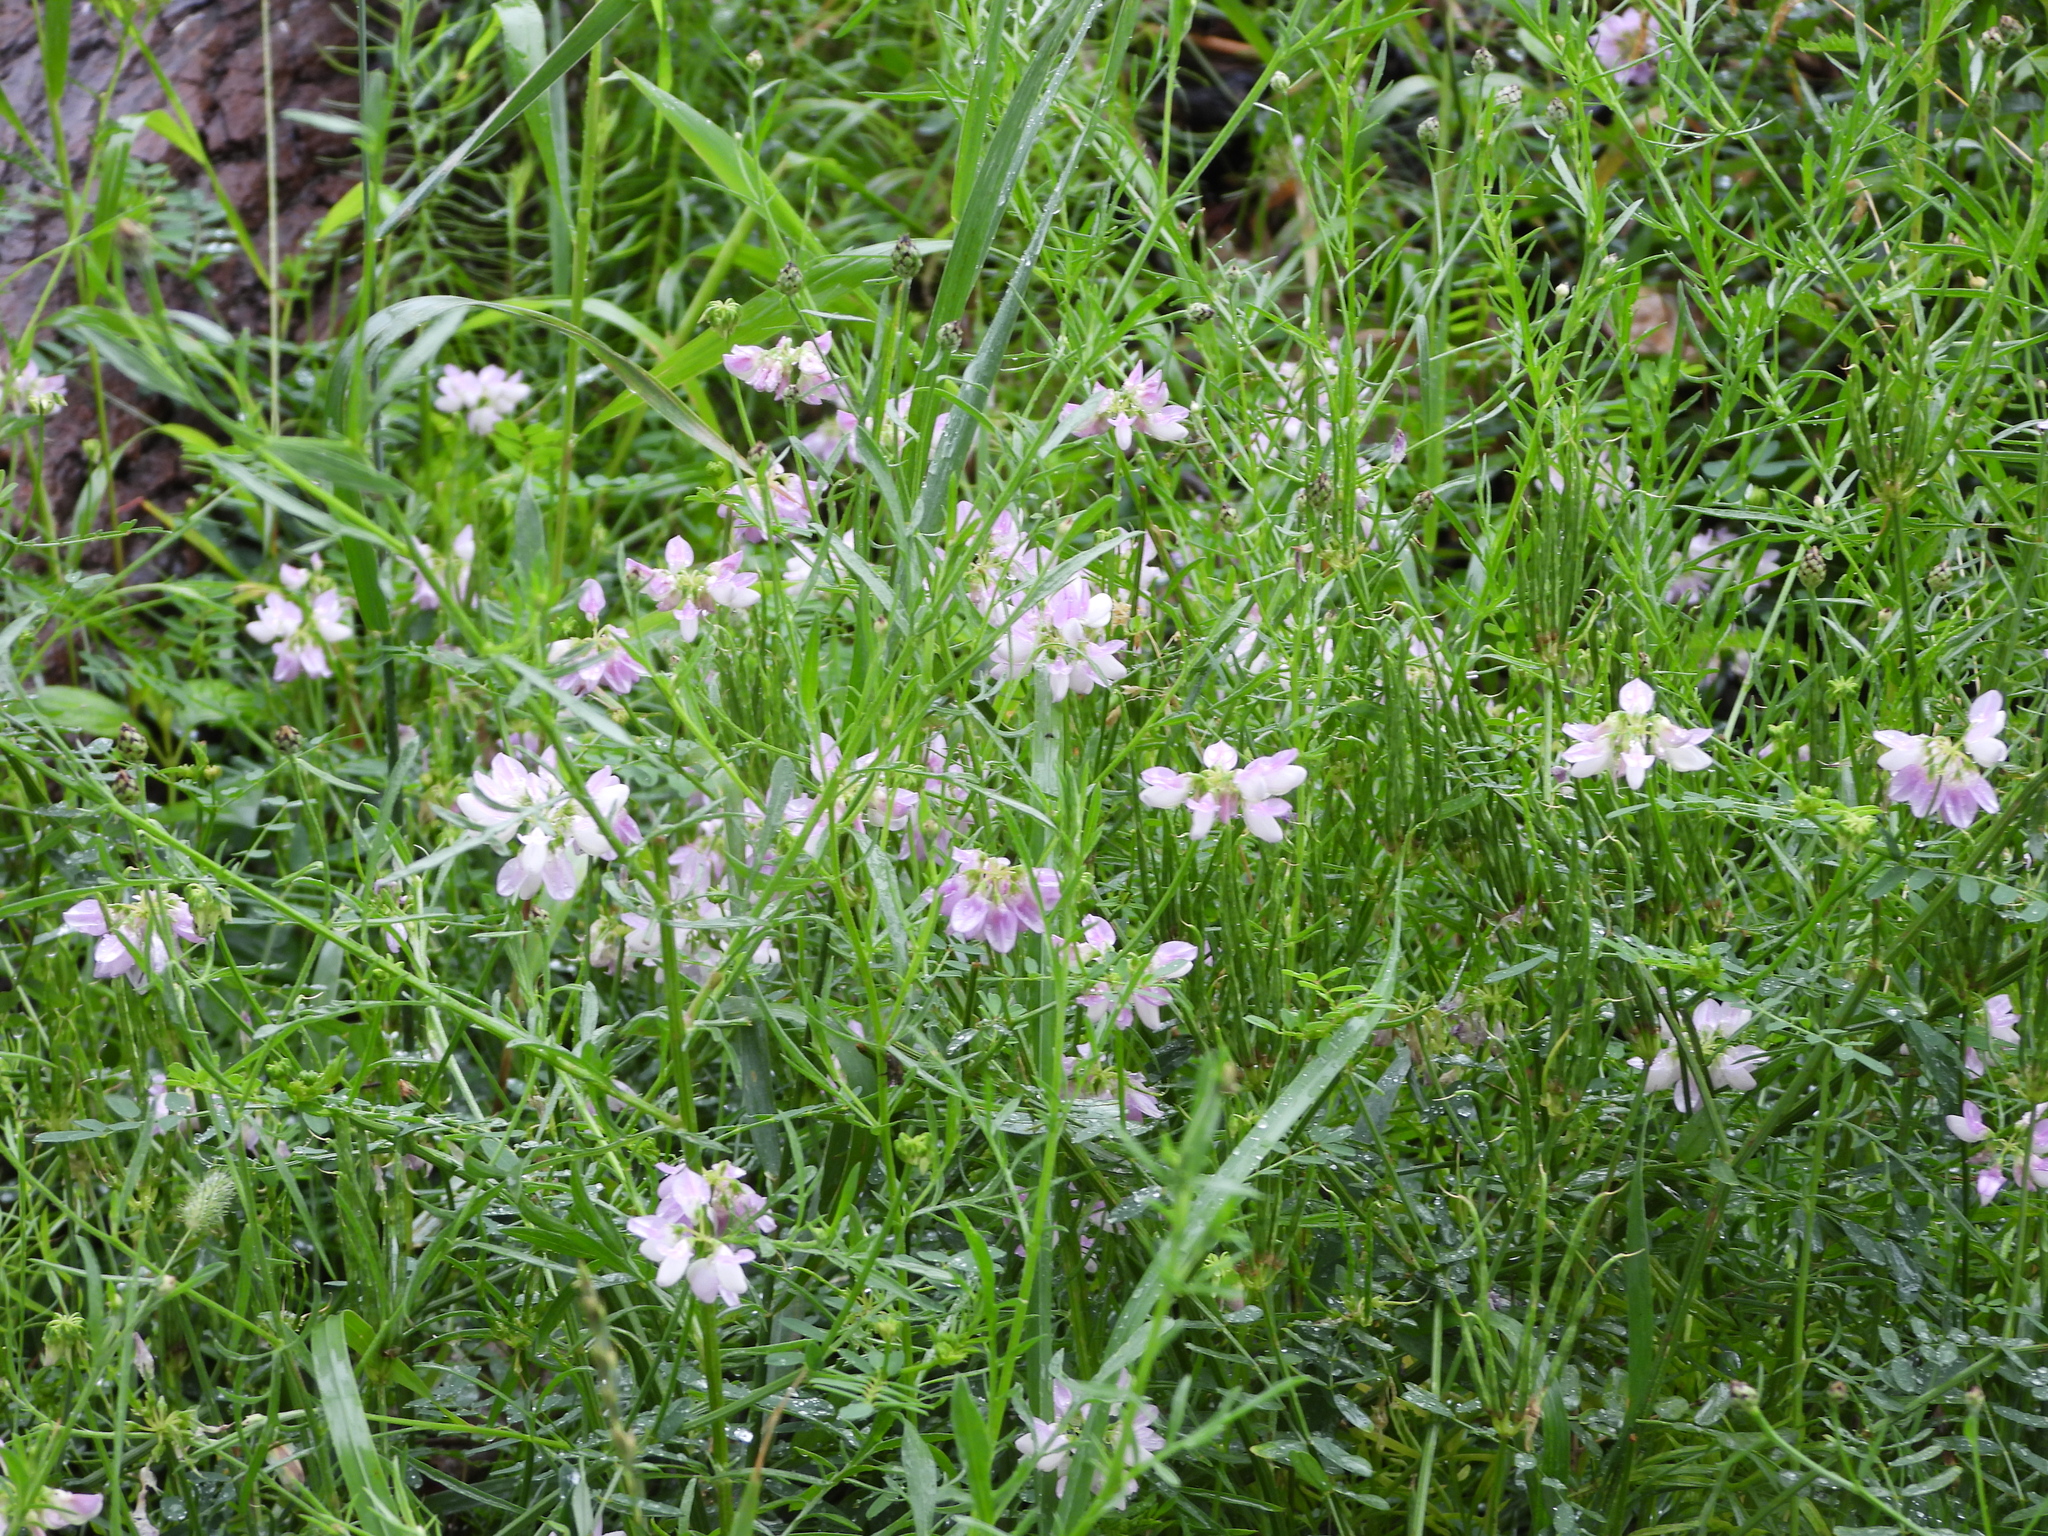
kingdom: Plantae
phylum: Tracheophyta
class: Magnoliopsida
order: Fabales
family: Fabaceae
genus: Coronilla
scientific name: Coronilla varia
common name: Crownvetch
